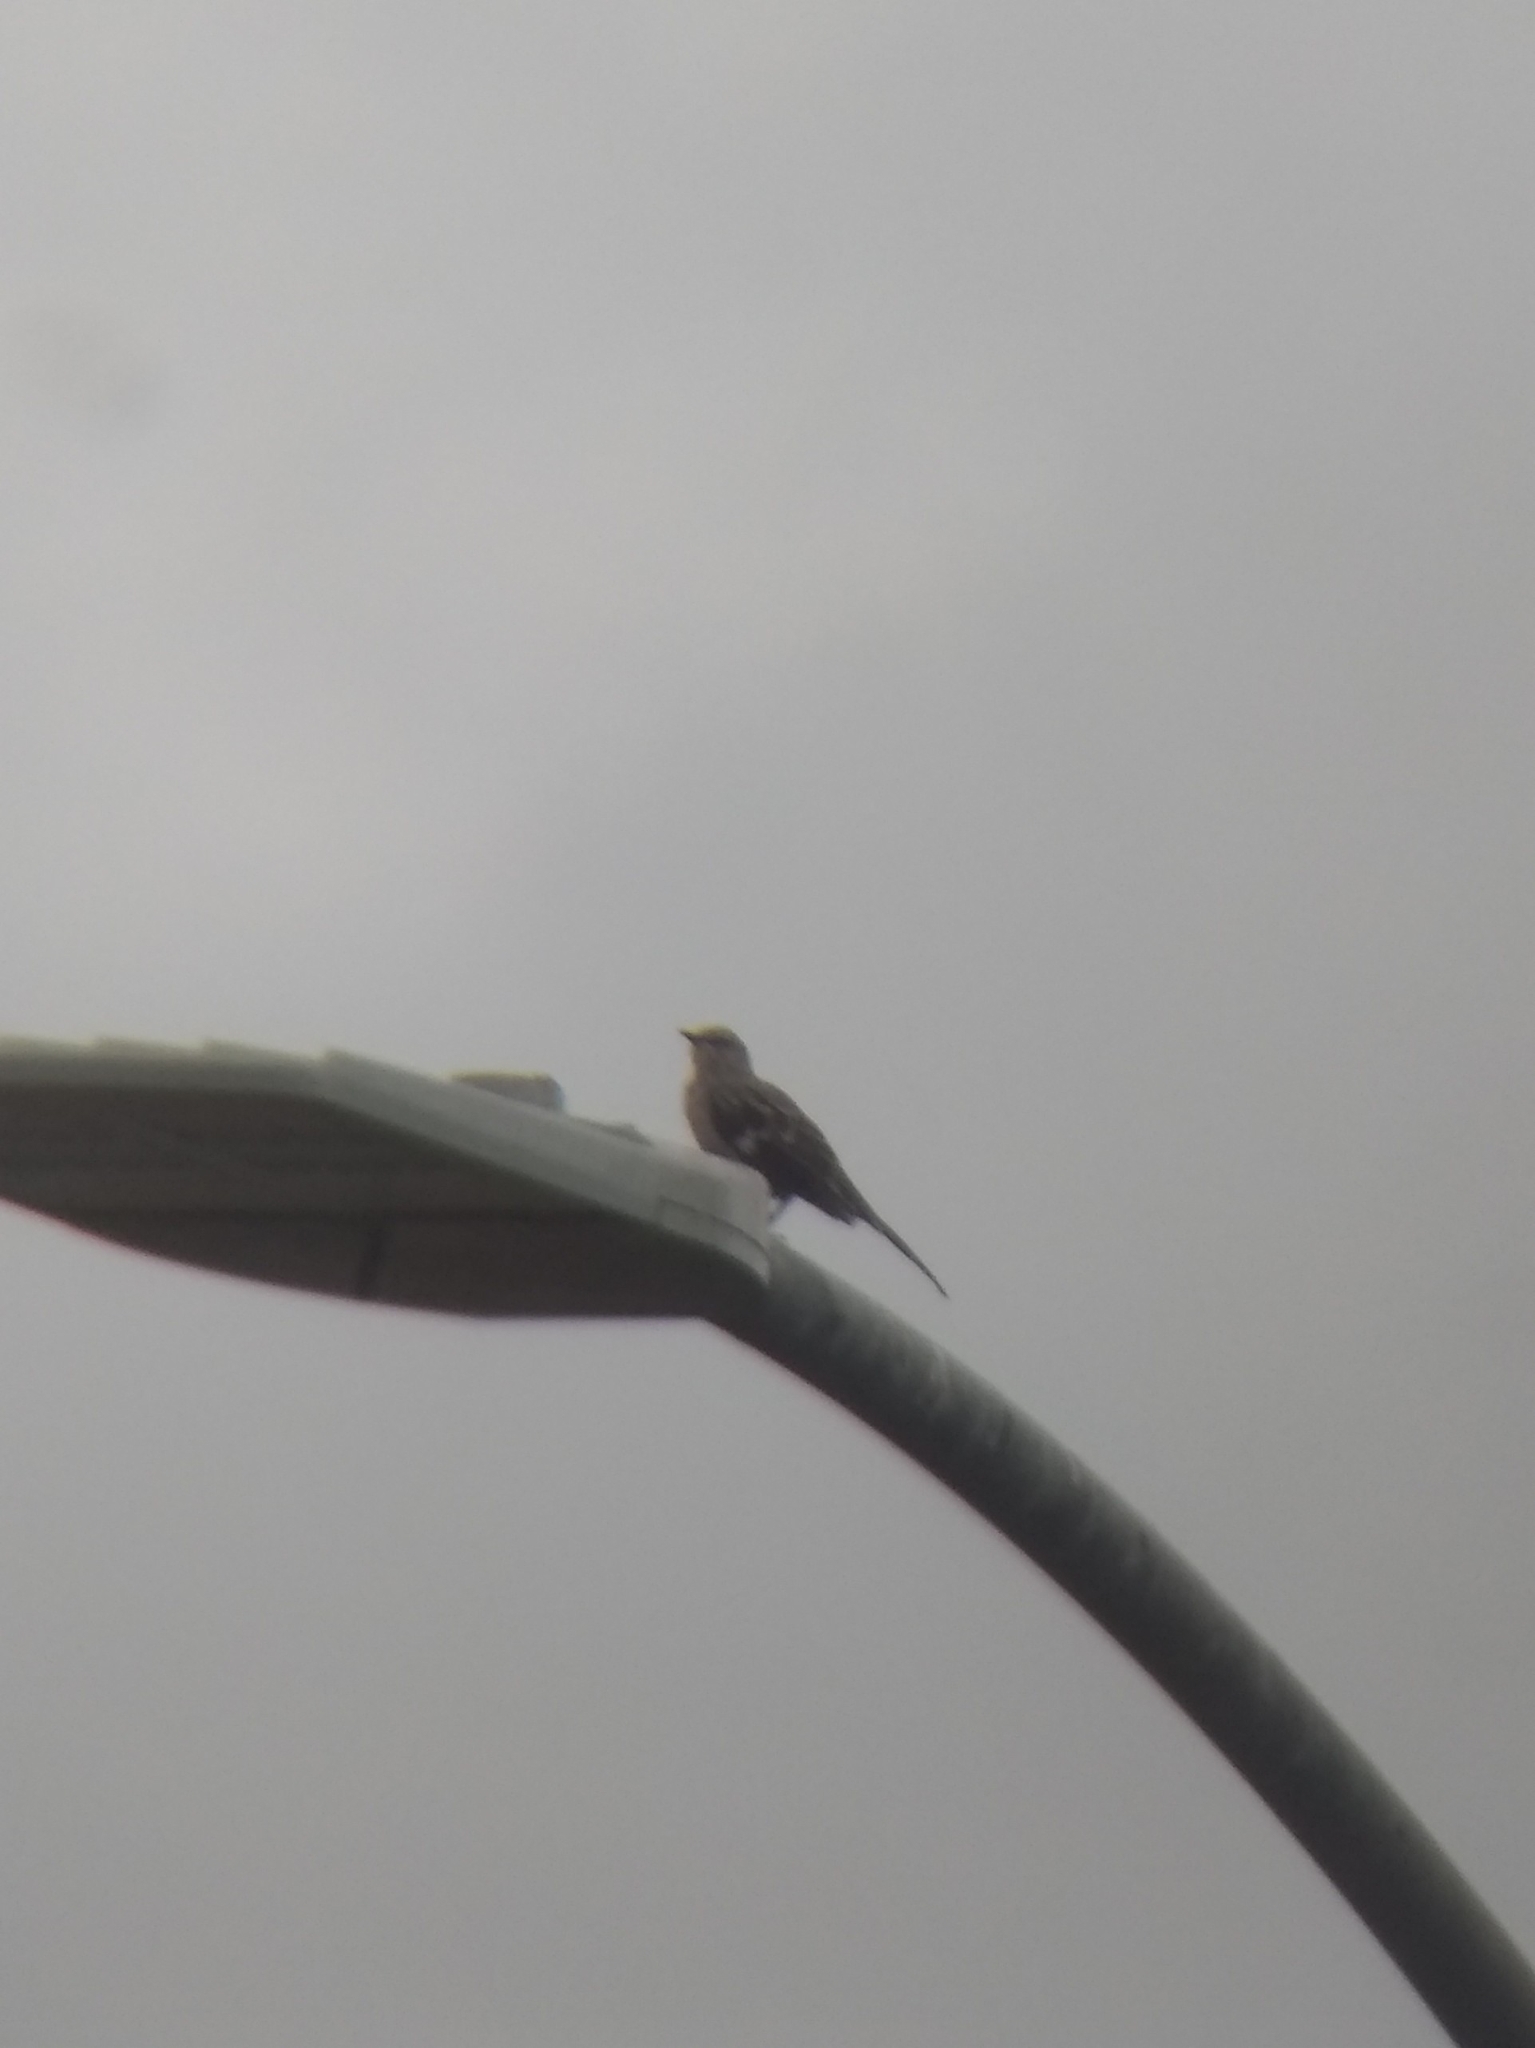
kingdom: Animalia
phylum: Chordata
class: Aves
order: Passeriformes
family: Mimidae
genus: Mimus
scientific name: Mimus polyglottos
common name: Northern mockingbird
